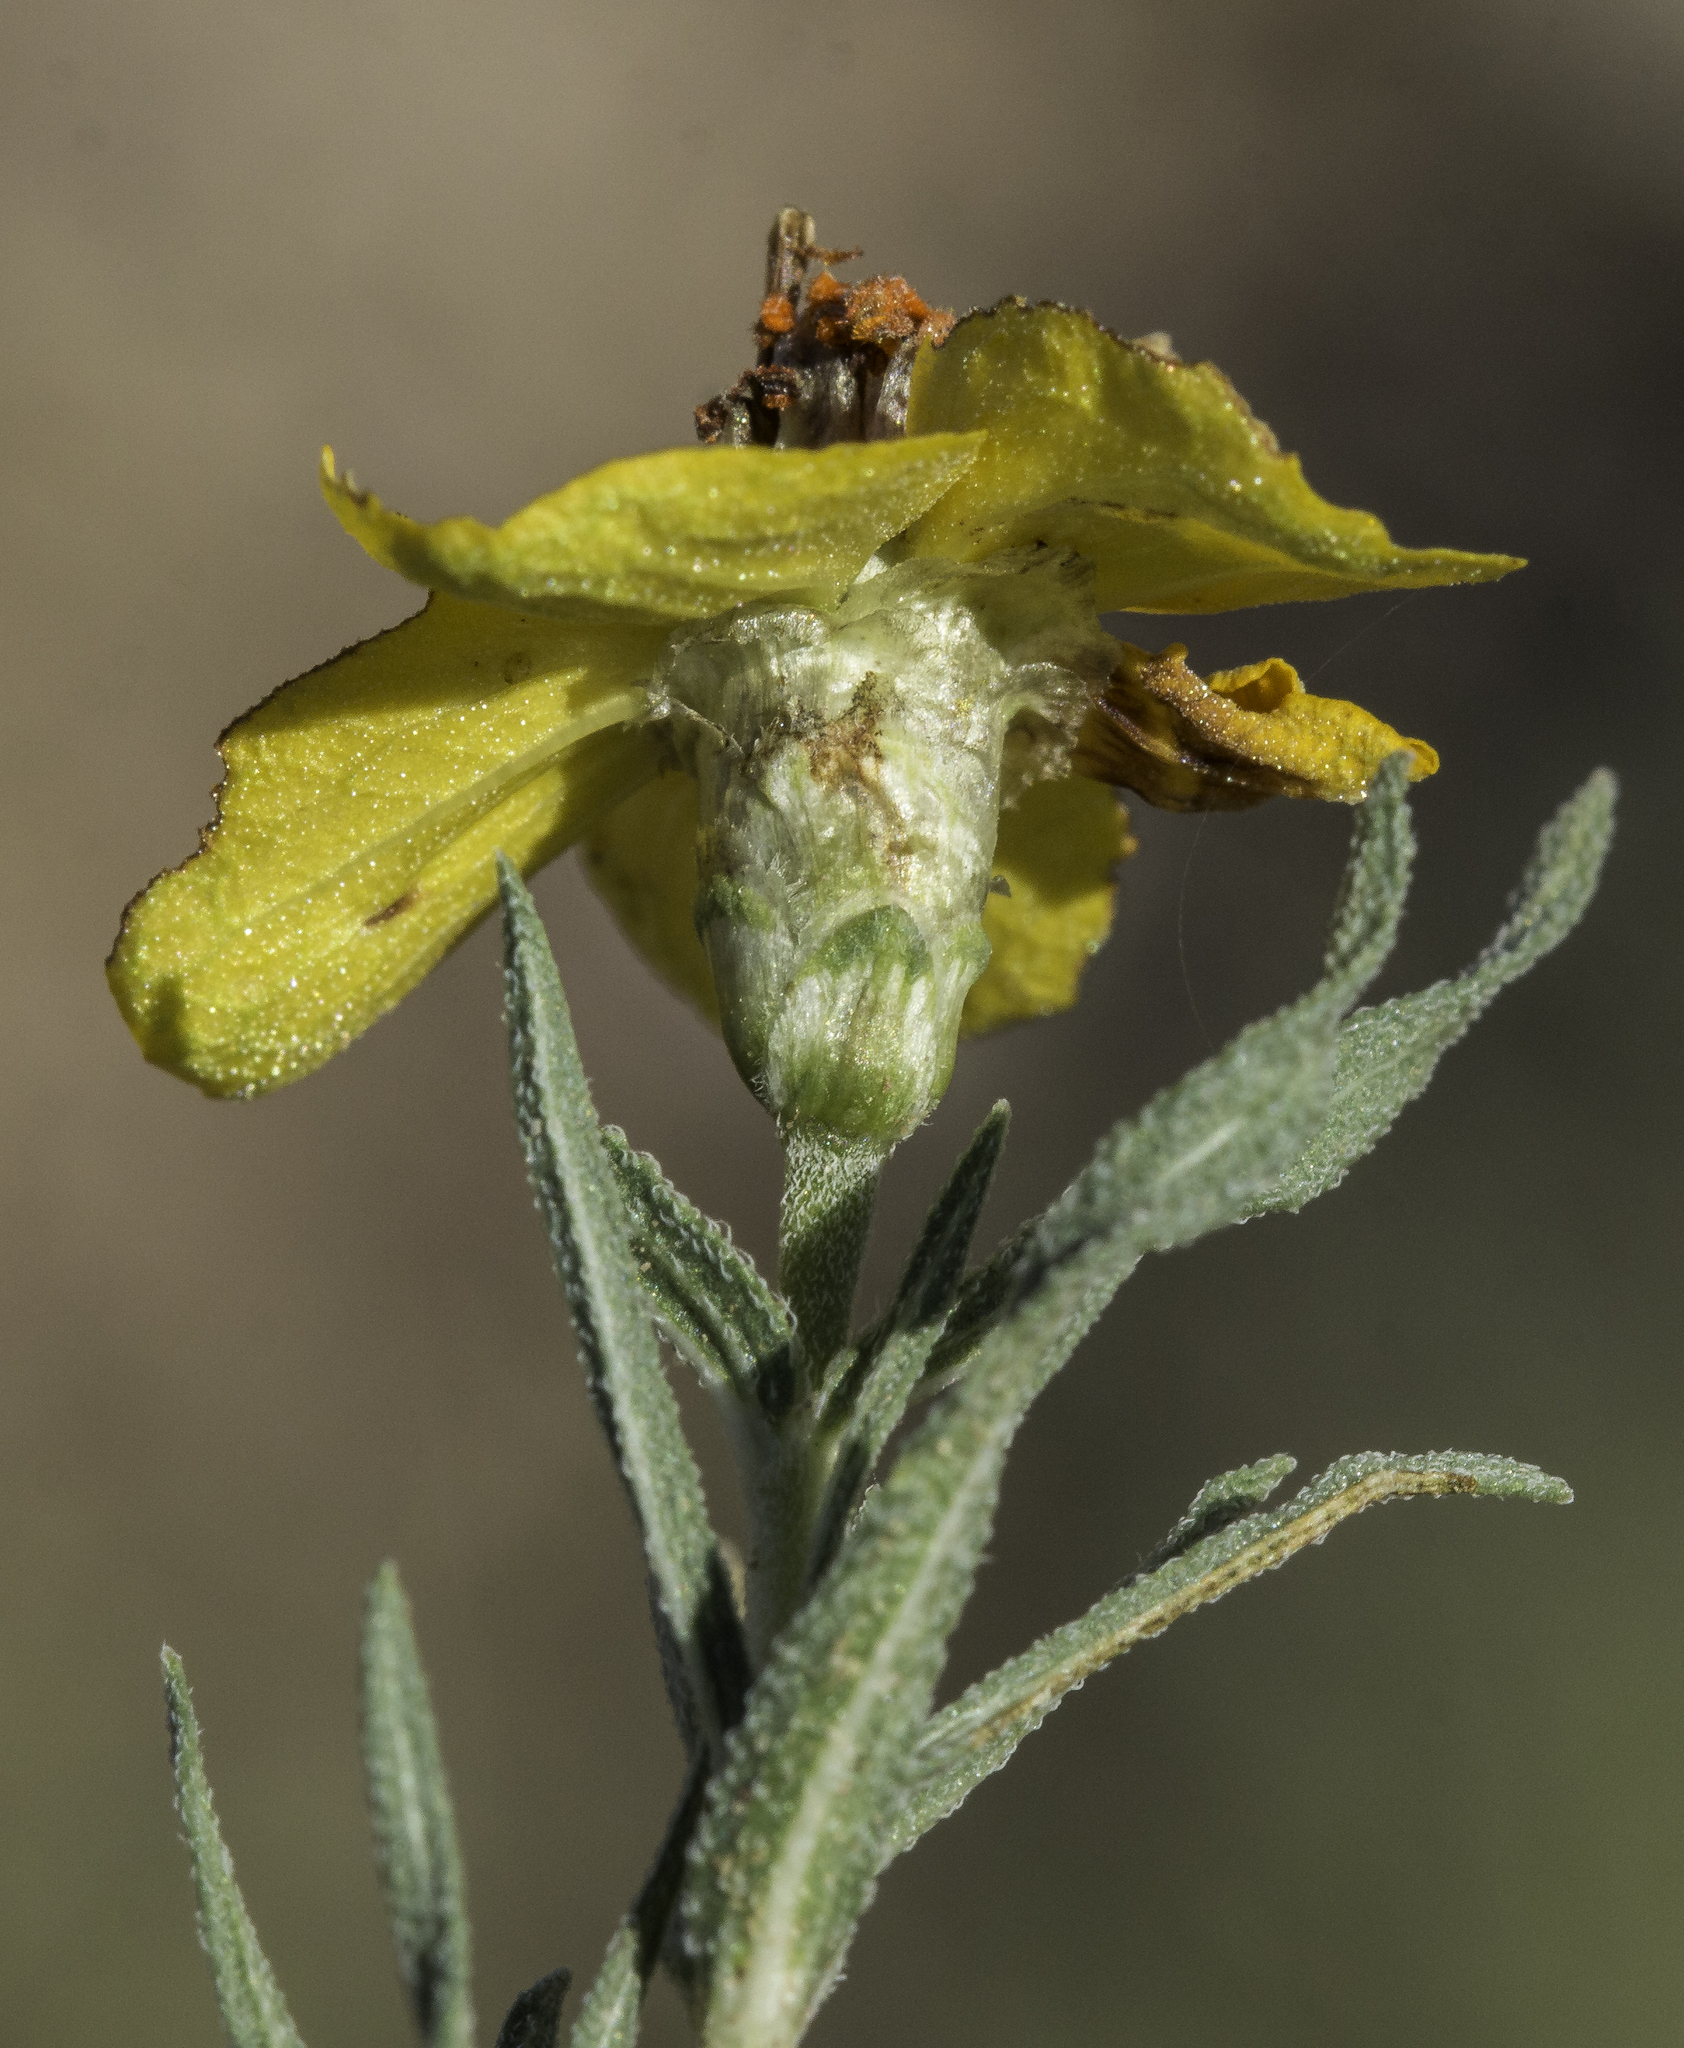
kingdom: Plantae
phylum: Tracheophyta
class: Magnoliopsida
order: Asterales
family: Asteraceae
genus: Zinnia
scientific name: Zinnia grandiflora
